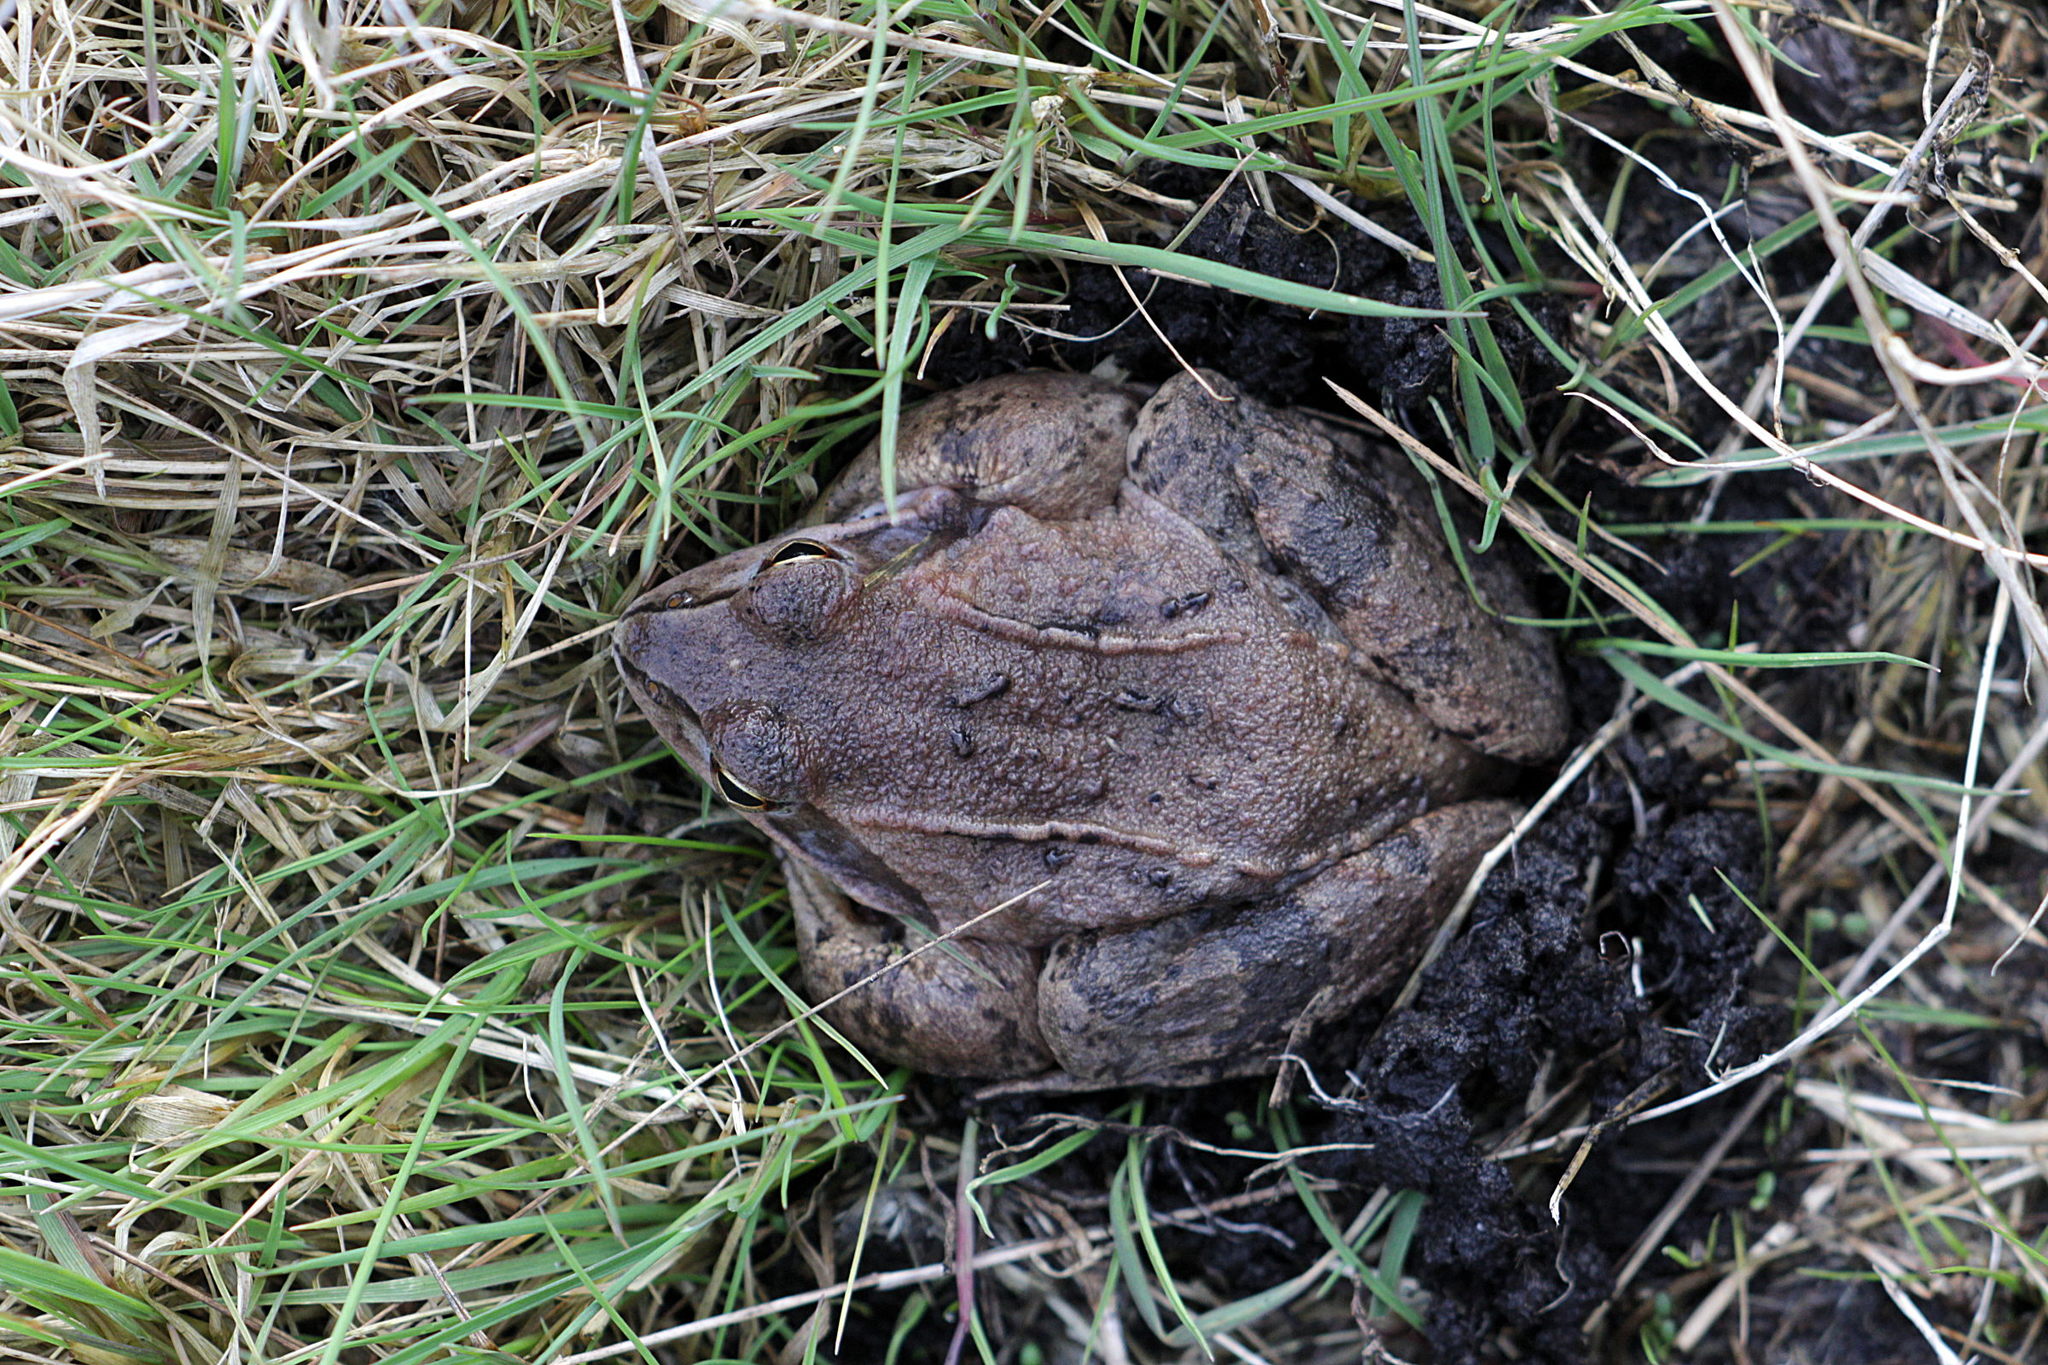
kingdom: Animalia
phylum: Chordata
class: Amphibia
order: Anura
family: Ranidae
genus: Rana
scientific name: Rana arvalis
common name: Moor frog
